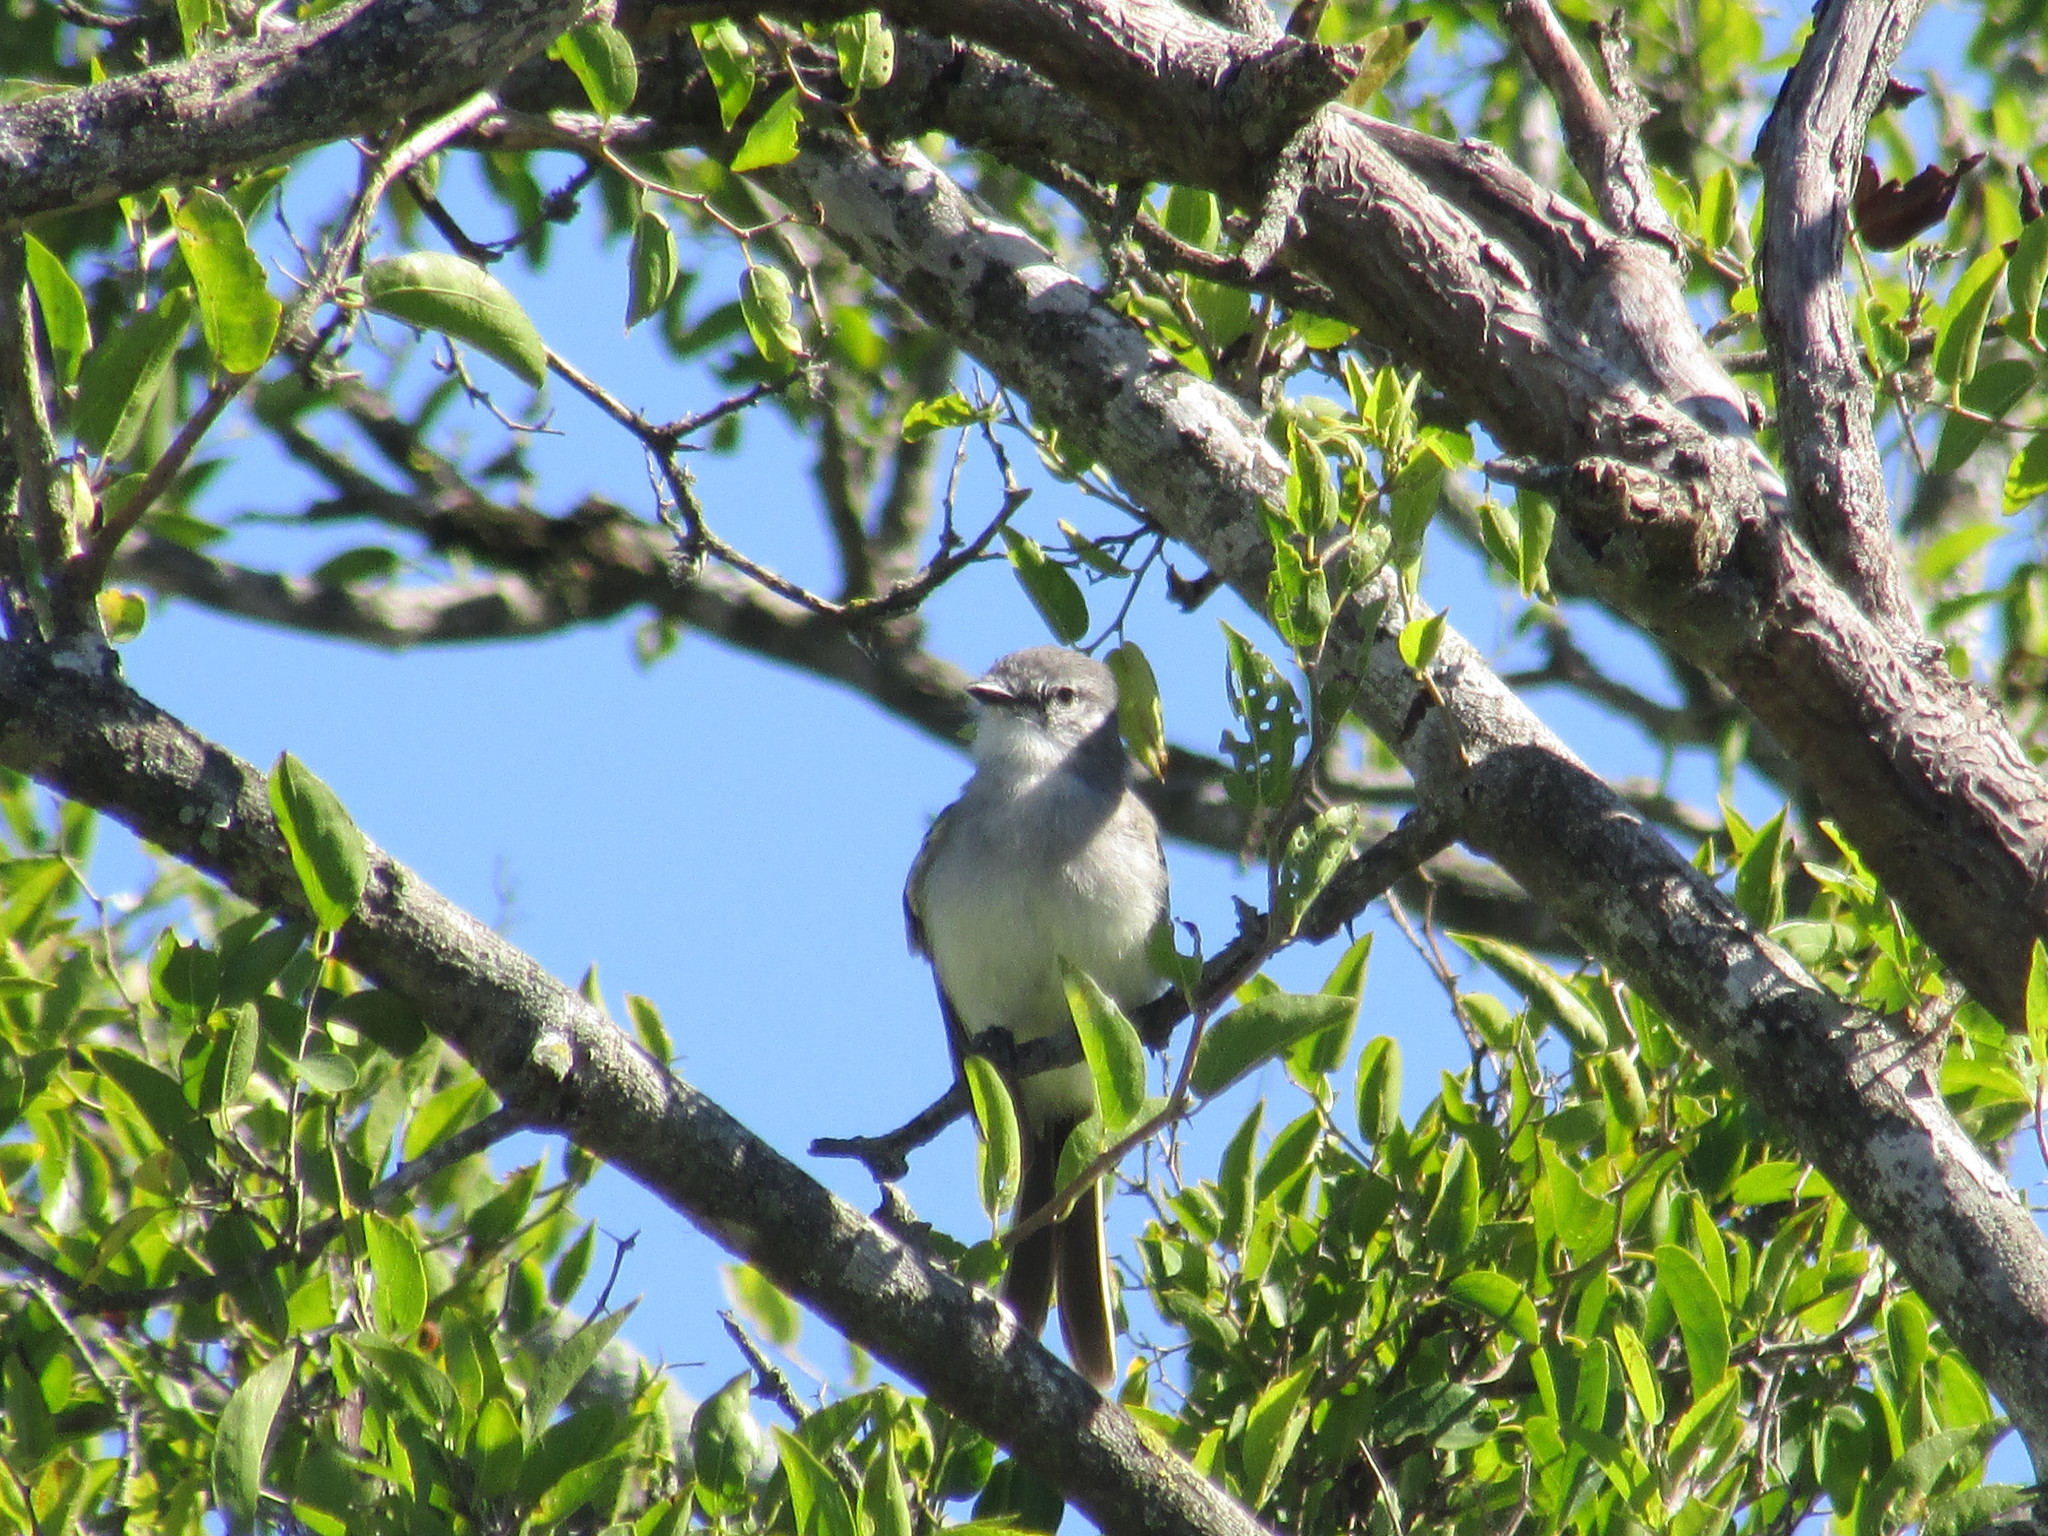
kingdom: Animalia
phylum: Chordata
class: Aves
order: Passeriformes
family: Tyrannidae
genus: Suiriri
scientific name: Suiriri suiriri
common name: Suiriri flycatcher
